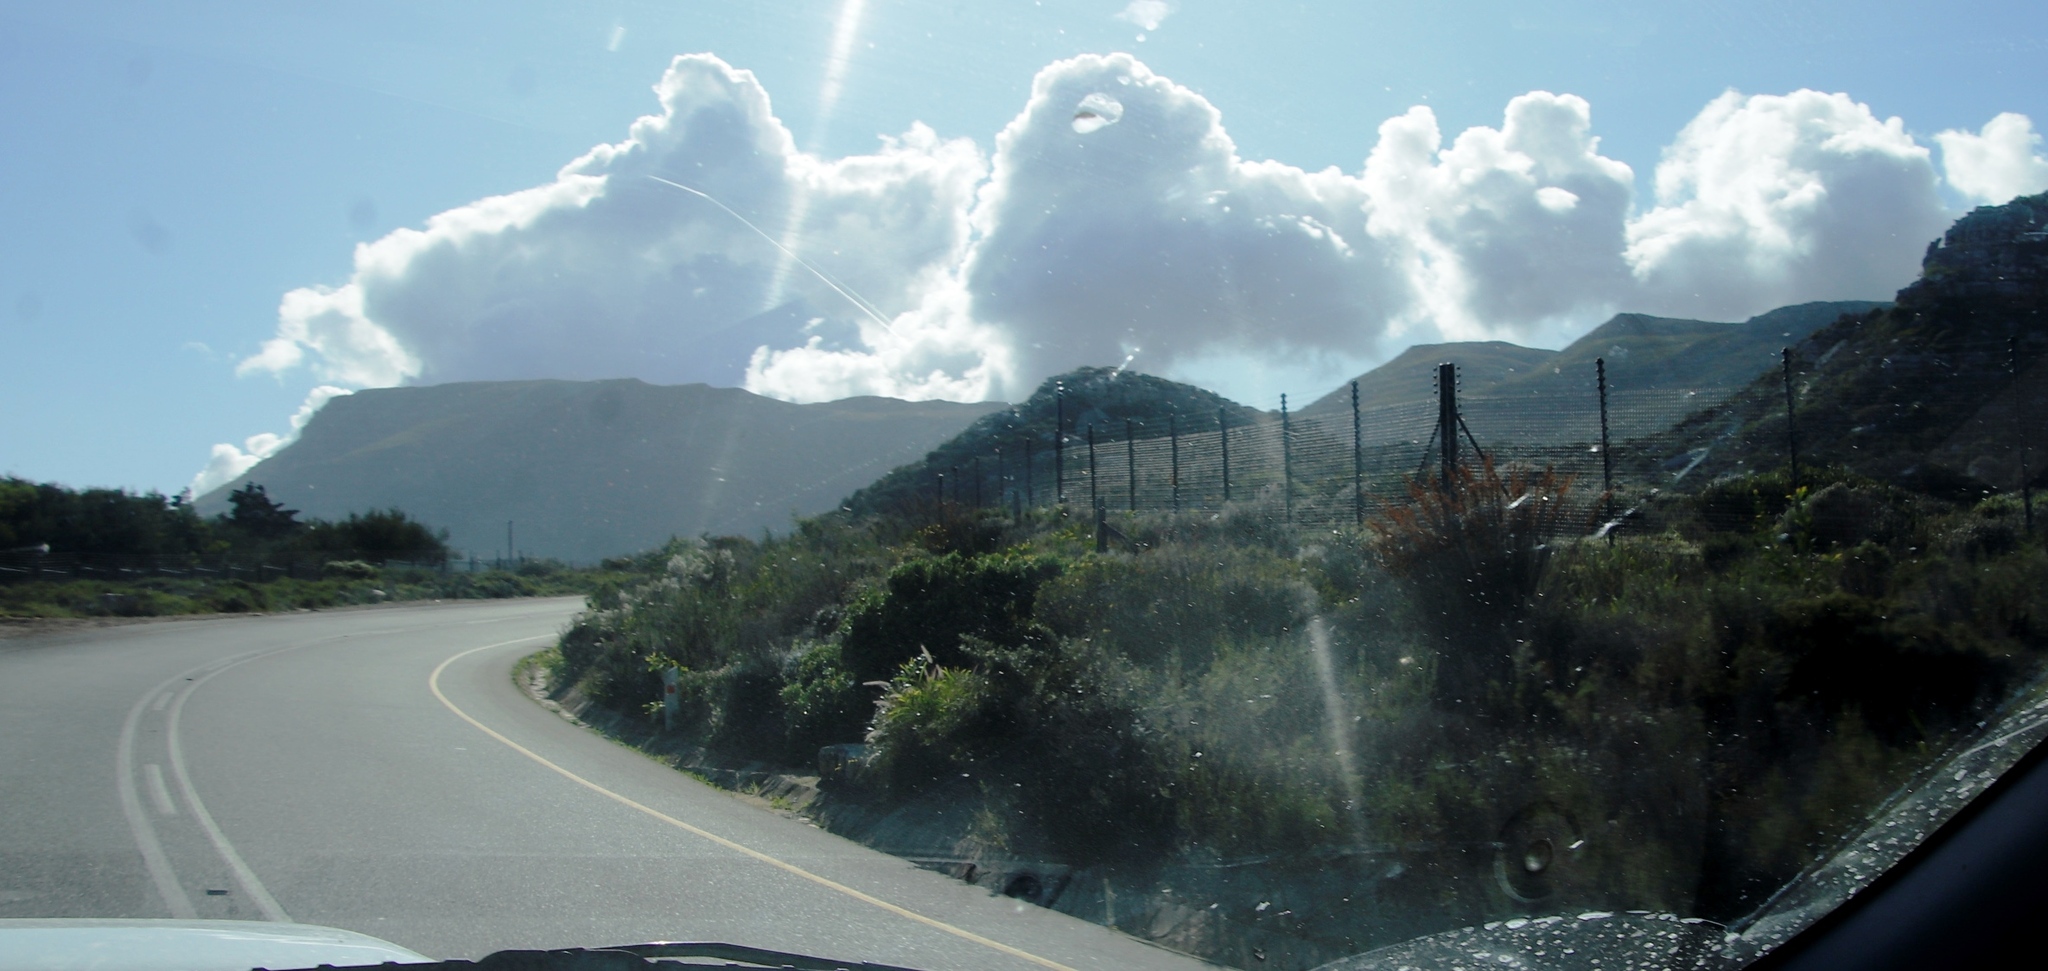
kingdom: Plantae
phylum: Tracheophyta
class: Liliopsida
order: Poales
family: Restionaceae
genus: Thamnochortus
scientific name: Thamnochortus insignis
